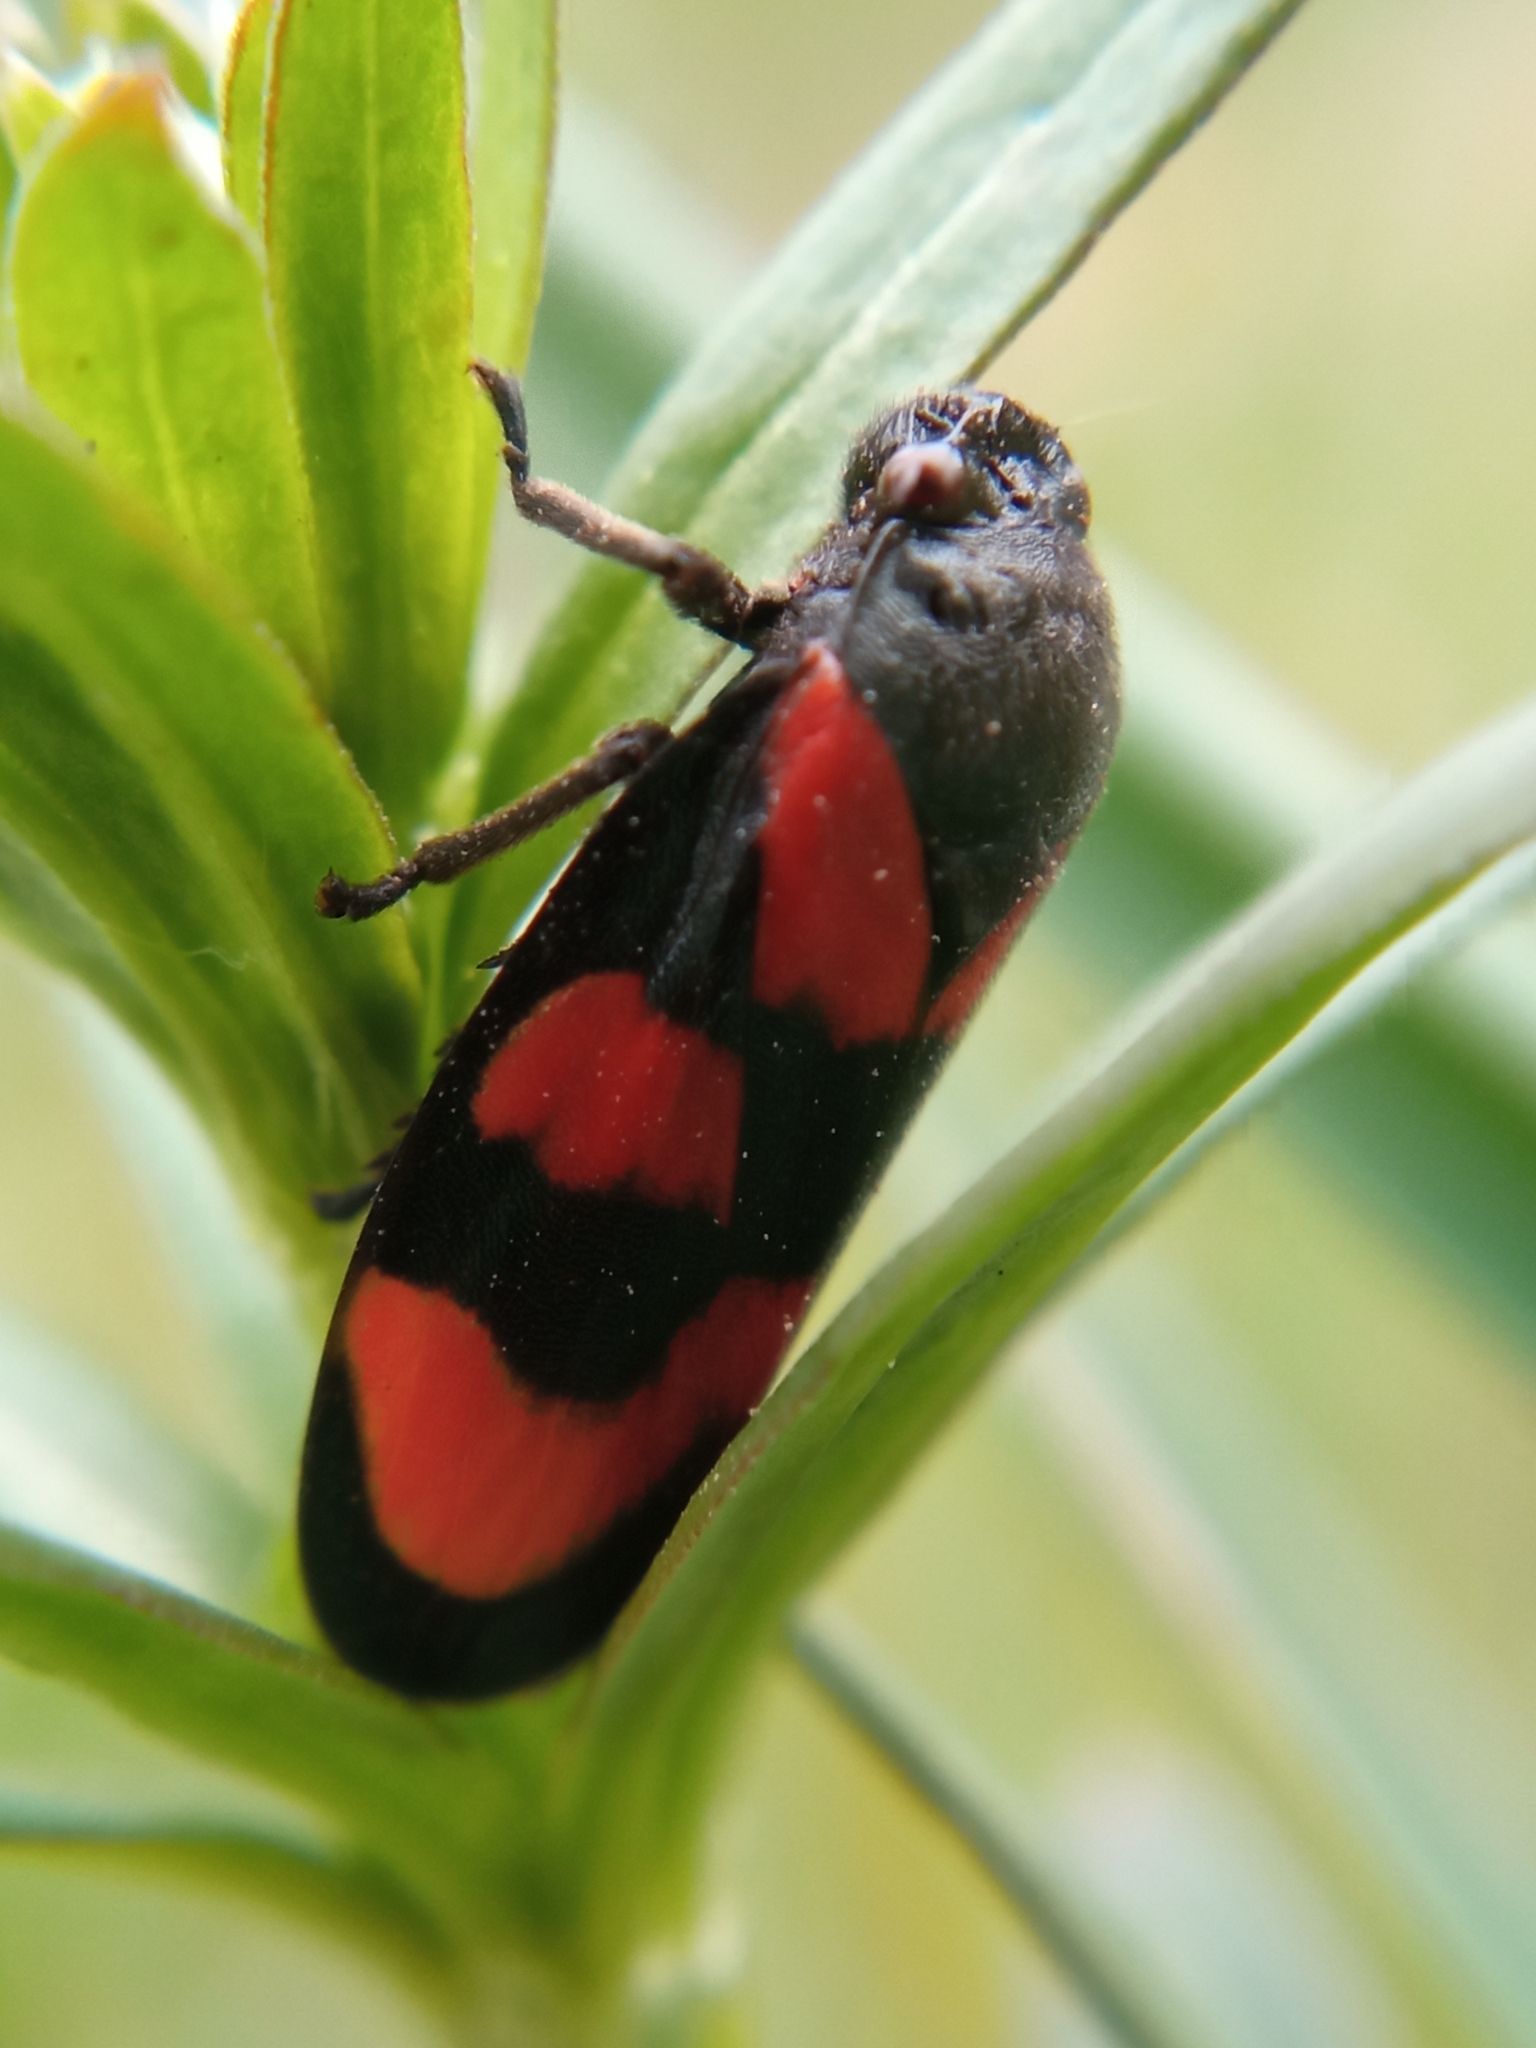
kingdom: Animalia
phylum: Arthropoda
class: Insecta
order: Hemiptera
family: Cercopidae
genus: Cercopis
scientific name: Cercopis vulnerata
